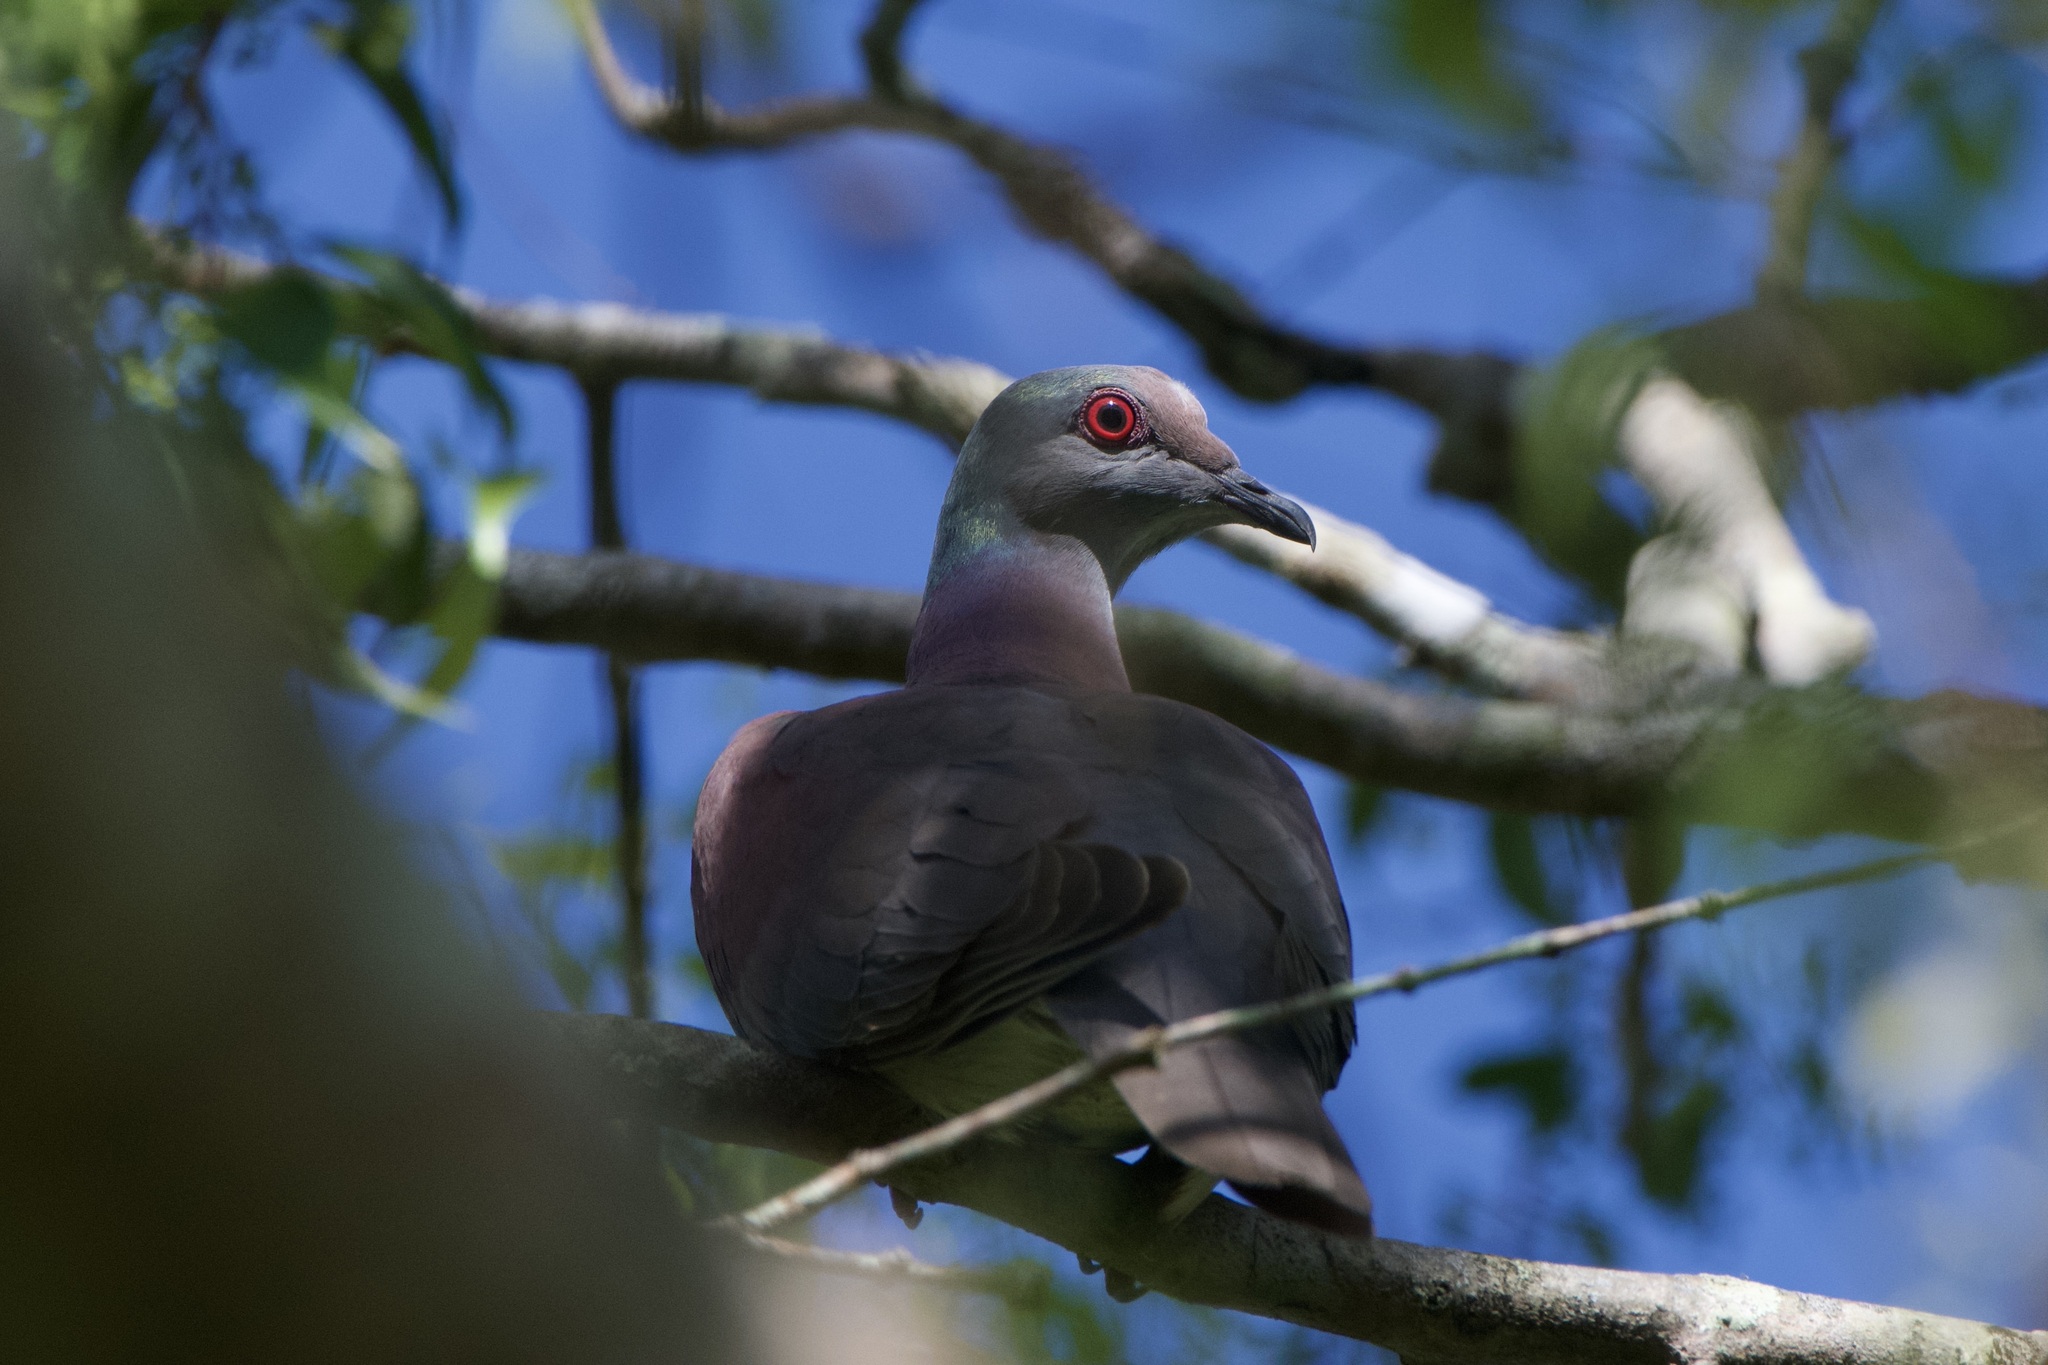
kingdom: Animalia
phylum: Chordata
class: Aves
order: Columbiformes
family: Columbidae
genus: Patagioenas
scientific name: Patagioenas cayennensis
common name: Pale-vented pigeon
